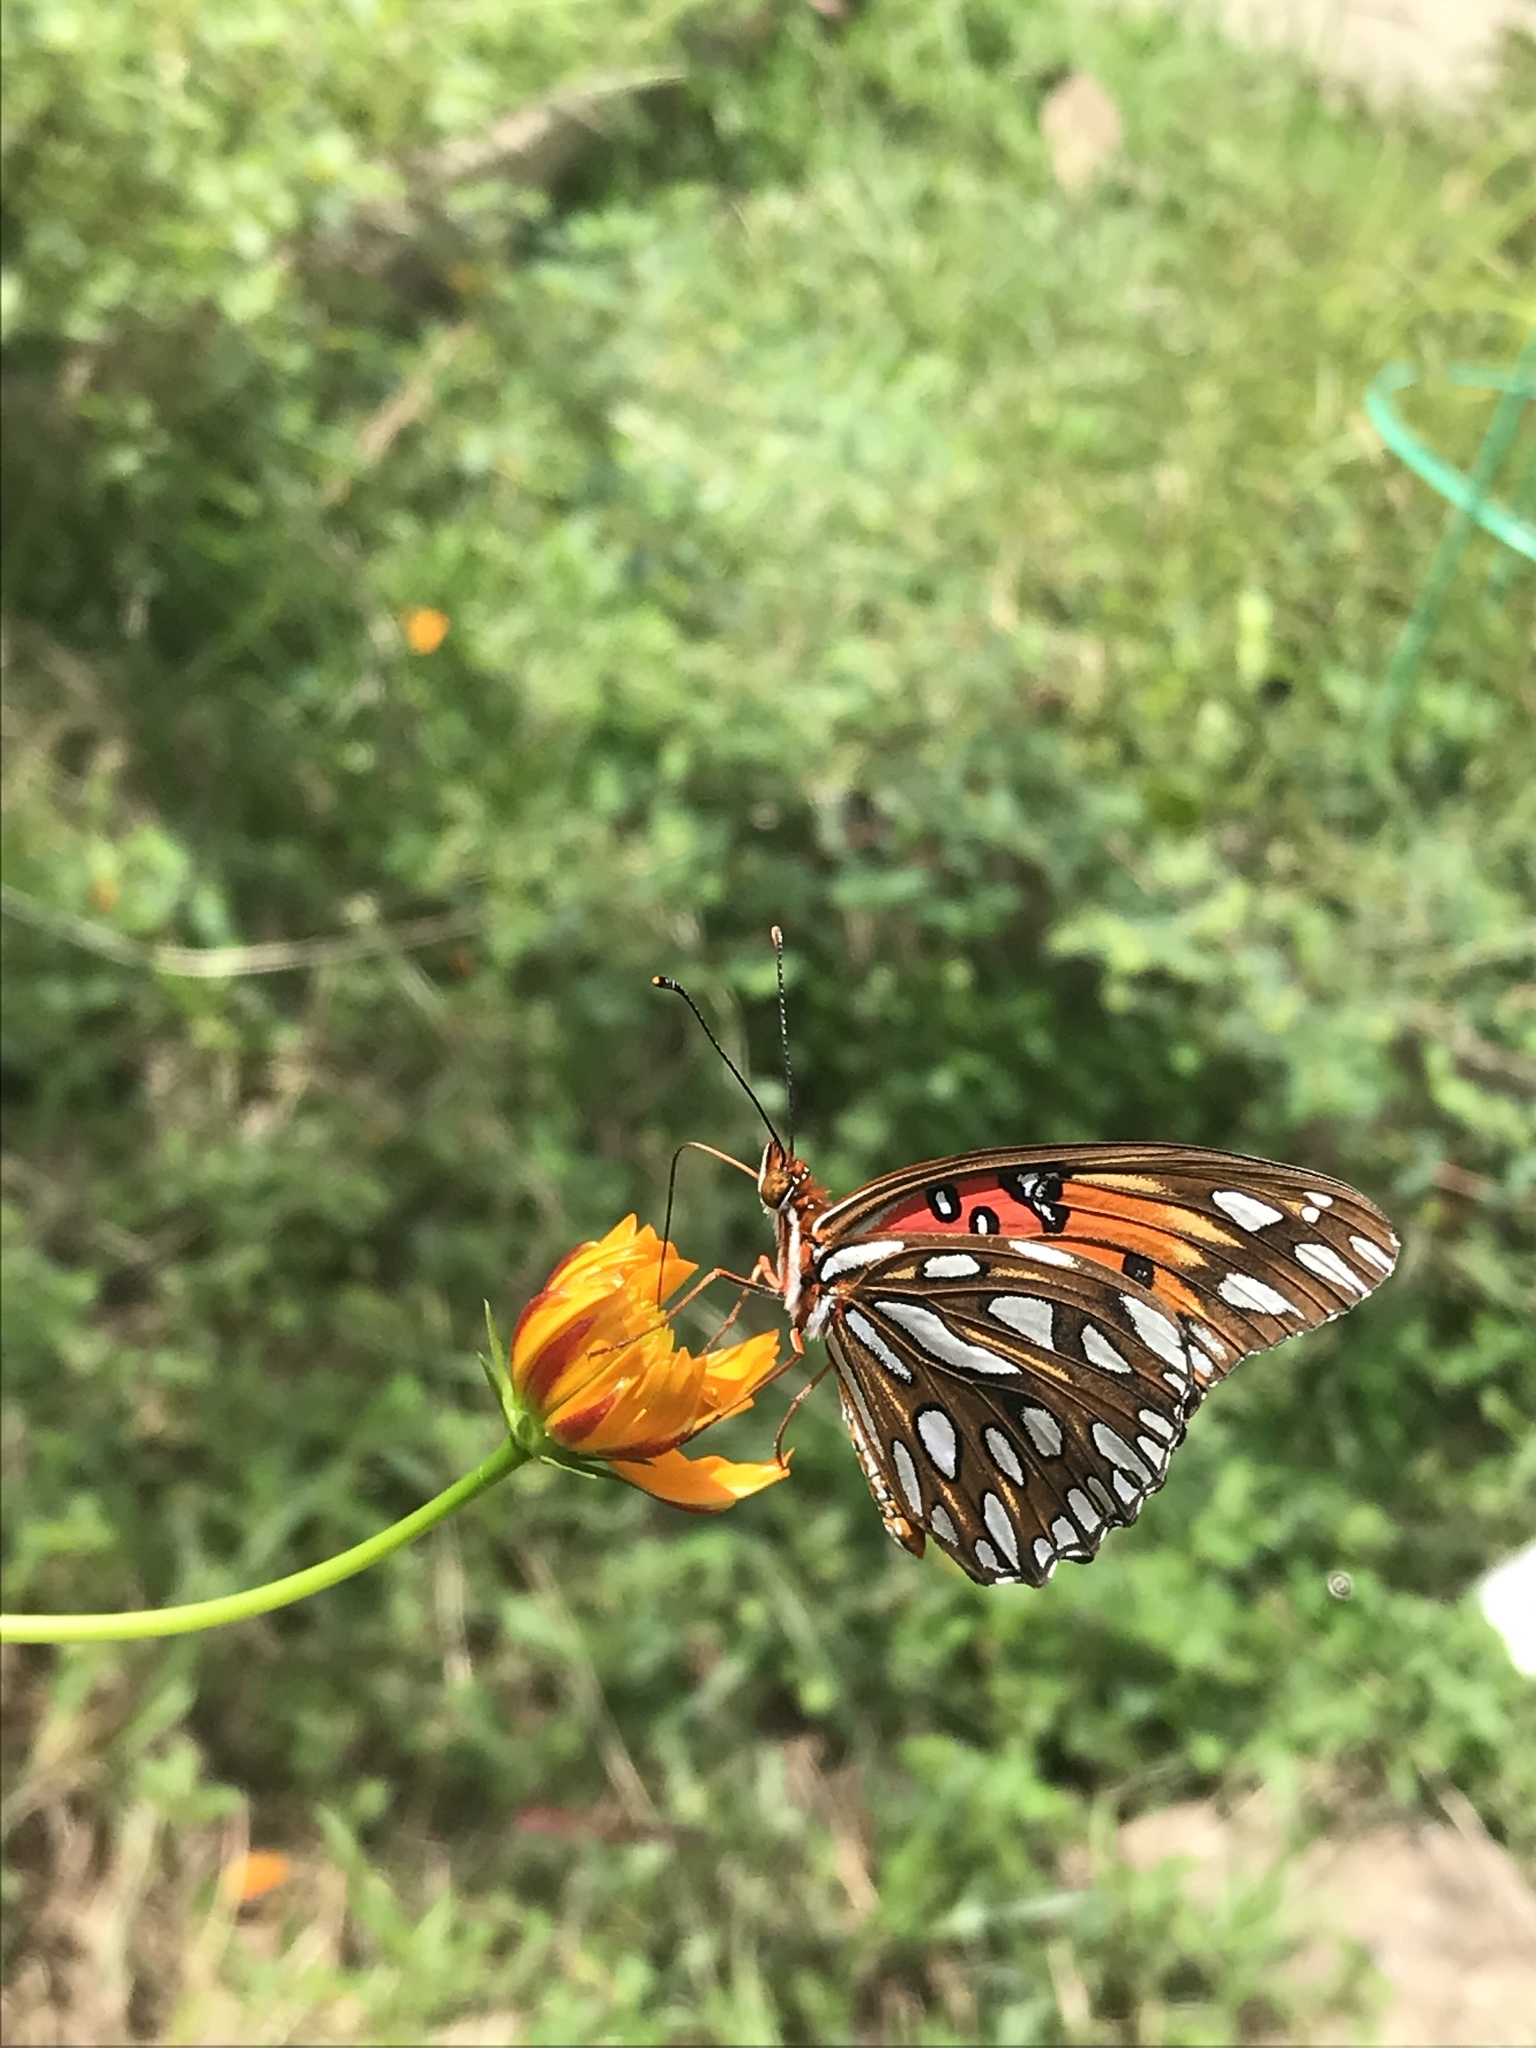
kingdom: Animalia
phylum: Arthropoda
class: Insecta
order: Lepidoptera
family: Nymphalidae
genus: Dione
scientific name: Dione vanillae
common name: Gulf fritillary
